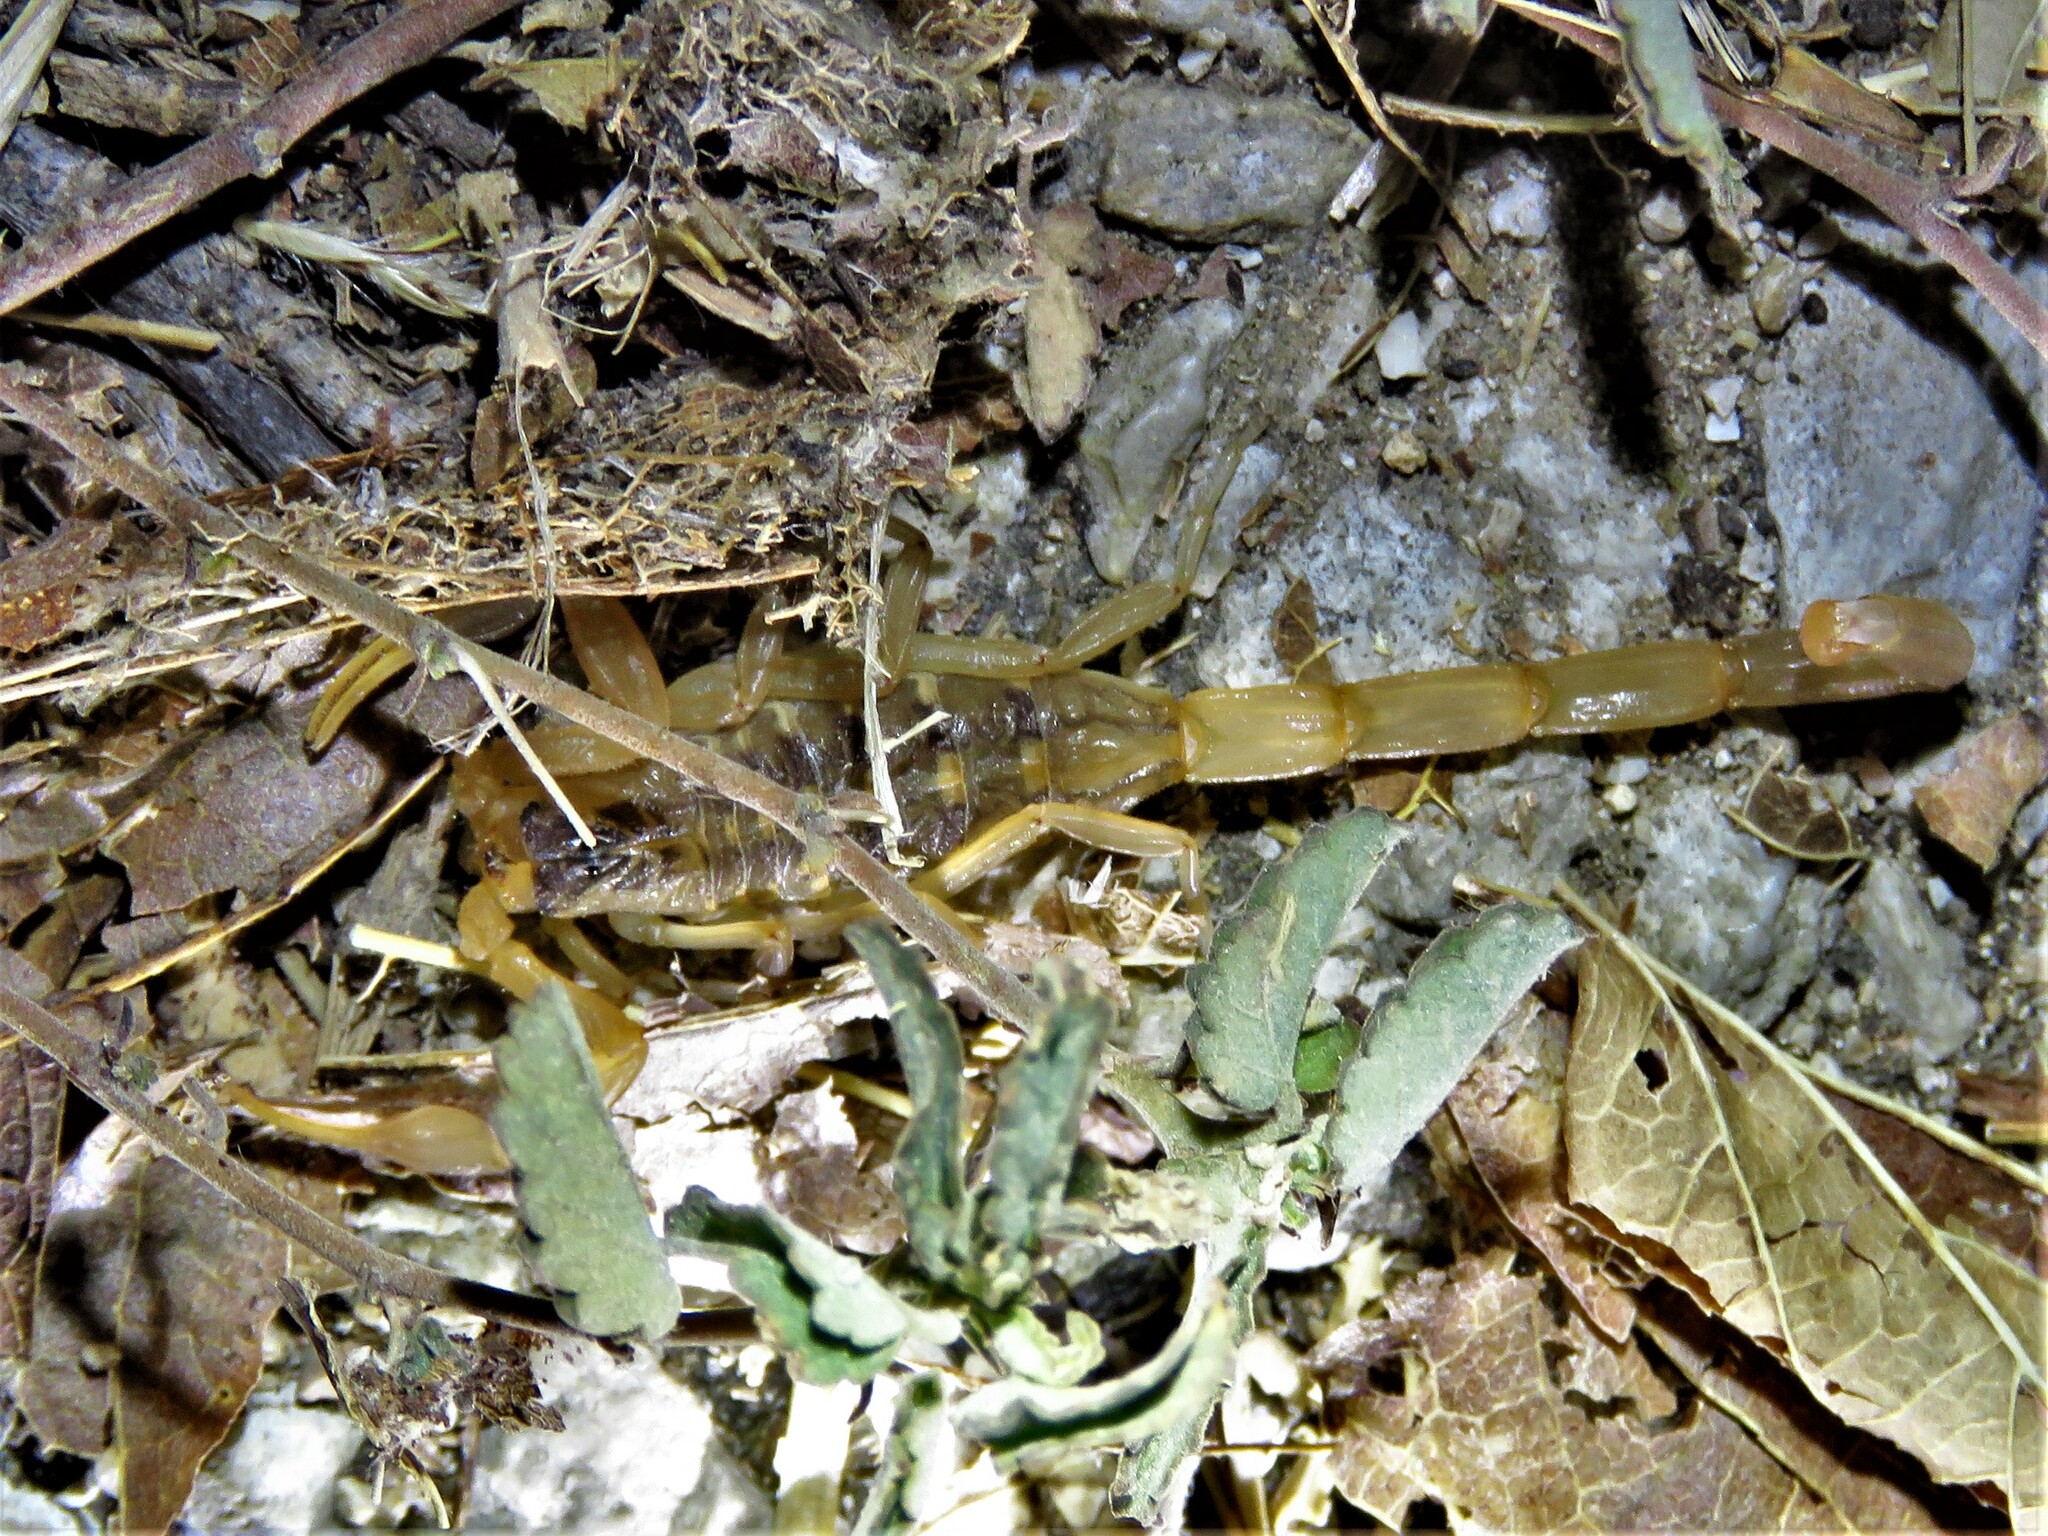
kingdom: Animalia
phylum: Arthropoda
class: Arachnida
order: Scorpiones
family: Buthidae
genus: Centruroides
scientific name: Centruroides vittatus
